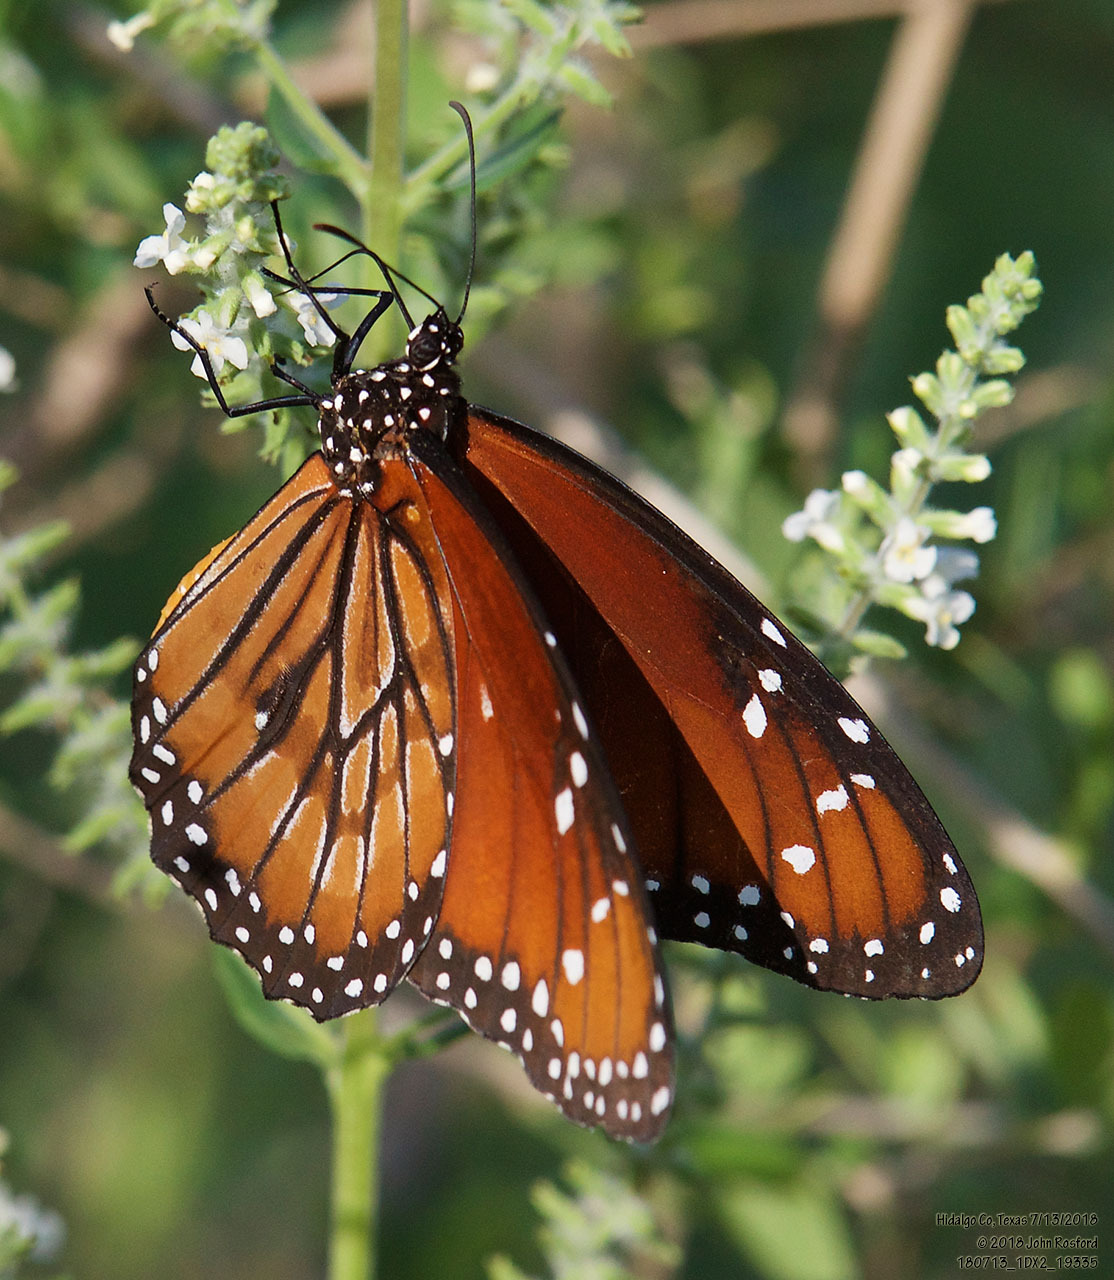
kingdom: Animalia
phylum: Arthropoda
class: Insecta
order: Lepidoptera
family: Nymphalidae
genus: Danaus
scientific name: Danaus eresimus
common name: Soldier
